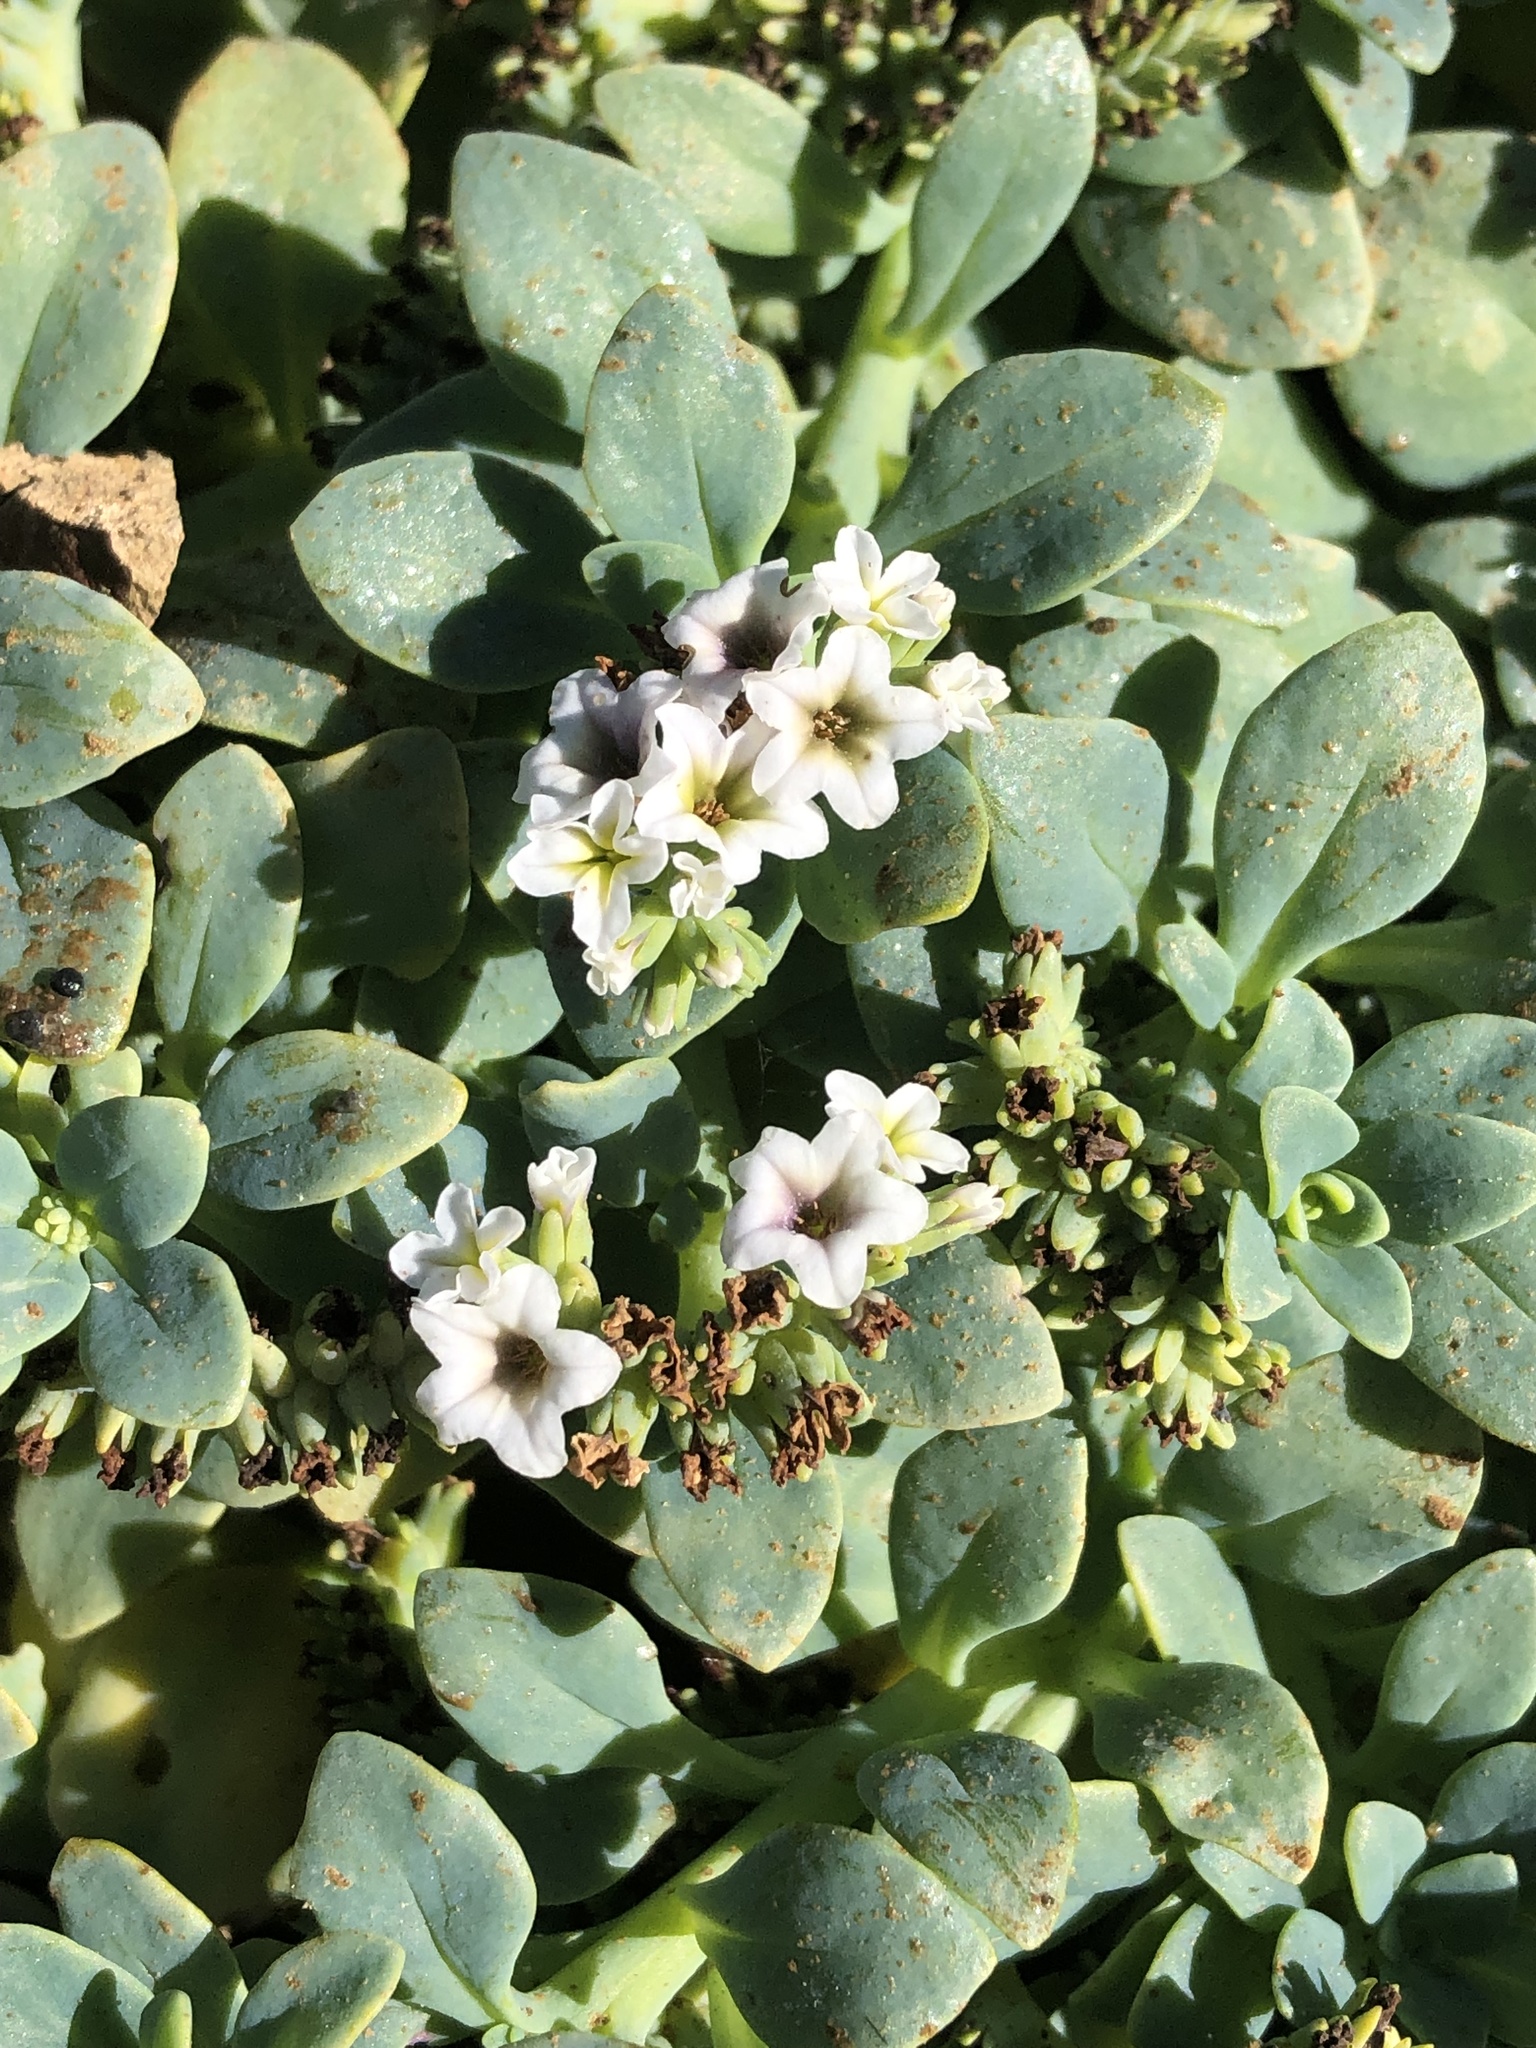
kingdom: Plantae
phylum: Tracheophyta
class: Magnoliopsida
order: Boraginales
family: Heliotropiaceae
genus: Heliotropium
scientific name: Heliotropium curassavicum
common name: Seaside heliotrope
